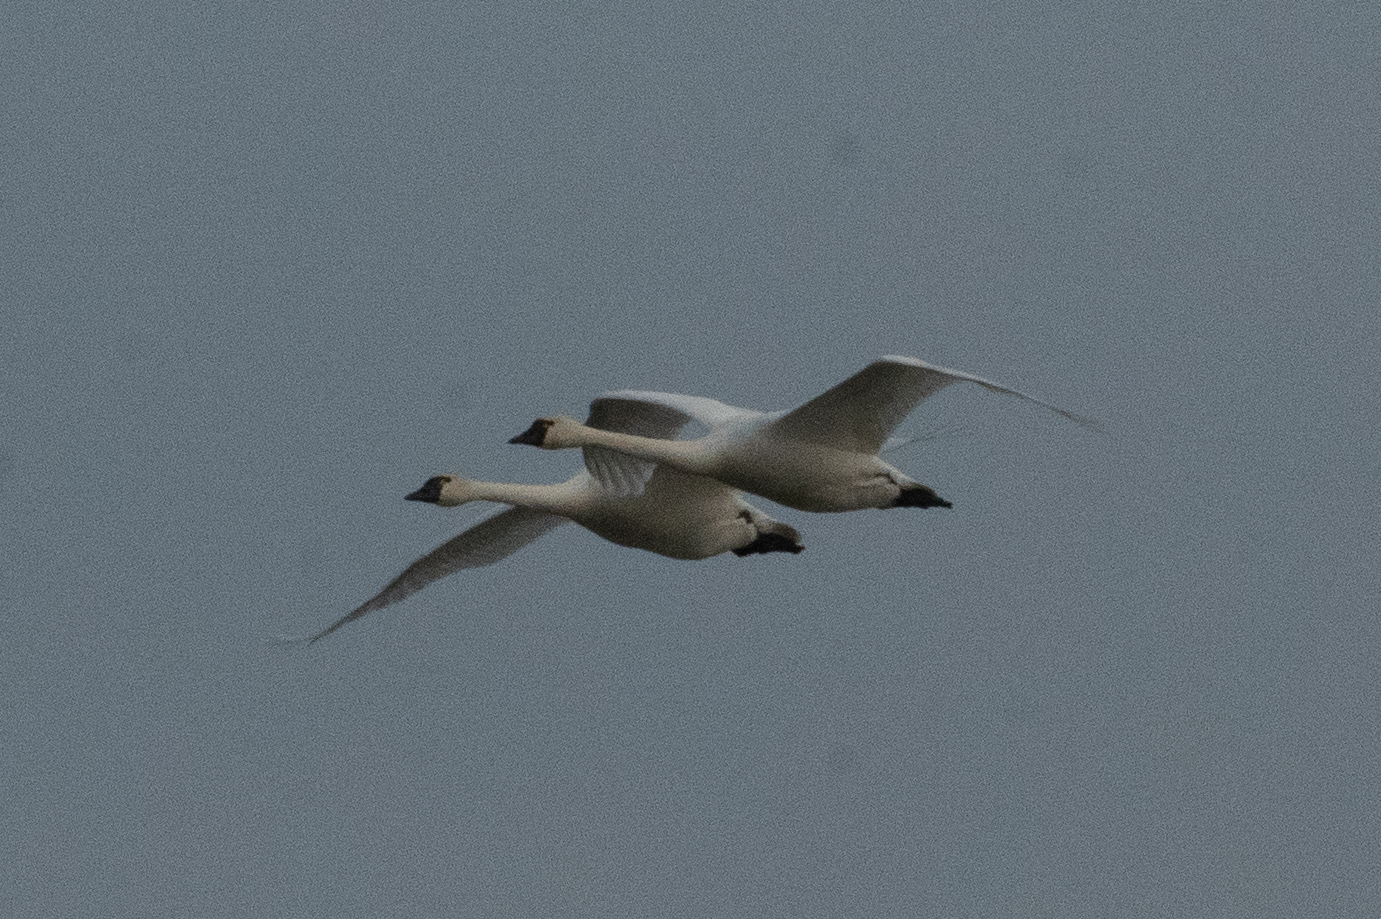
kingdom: Animalia
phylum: Chordata
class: Aves
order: Anseriformes
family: Anatidae
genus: Cygnus
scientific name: Cygnus columbianus
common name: Tundra swan
